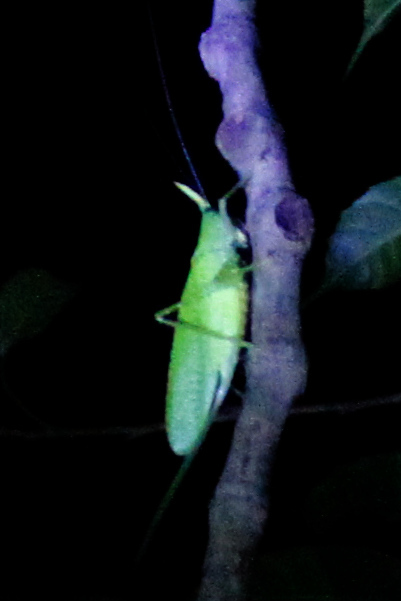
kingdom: Animalia
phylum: Arthropoda
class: Insecta
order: Orthoptera
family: Tettigoniidae
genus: Copiphora
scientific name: Copiphora rhinoceros
